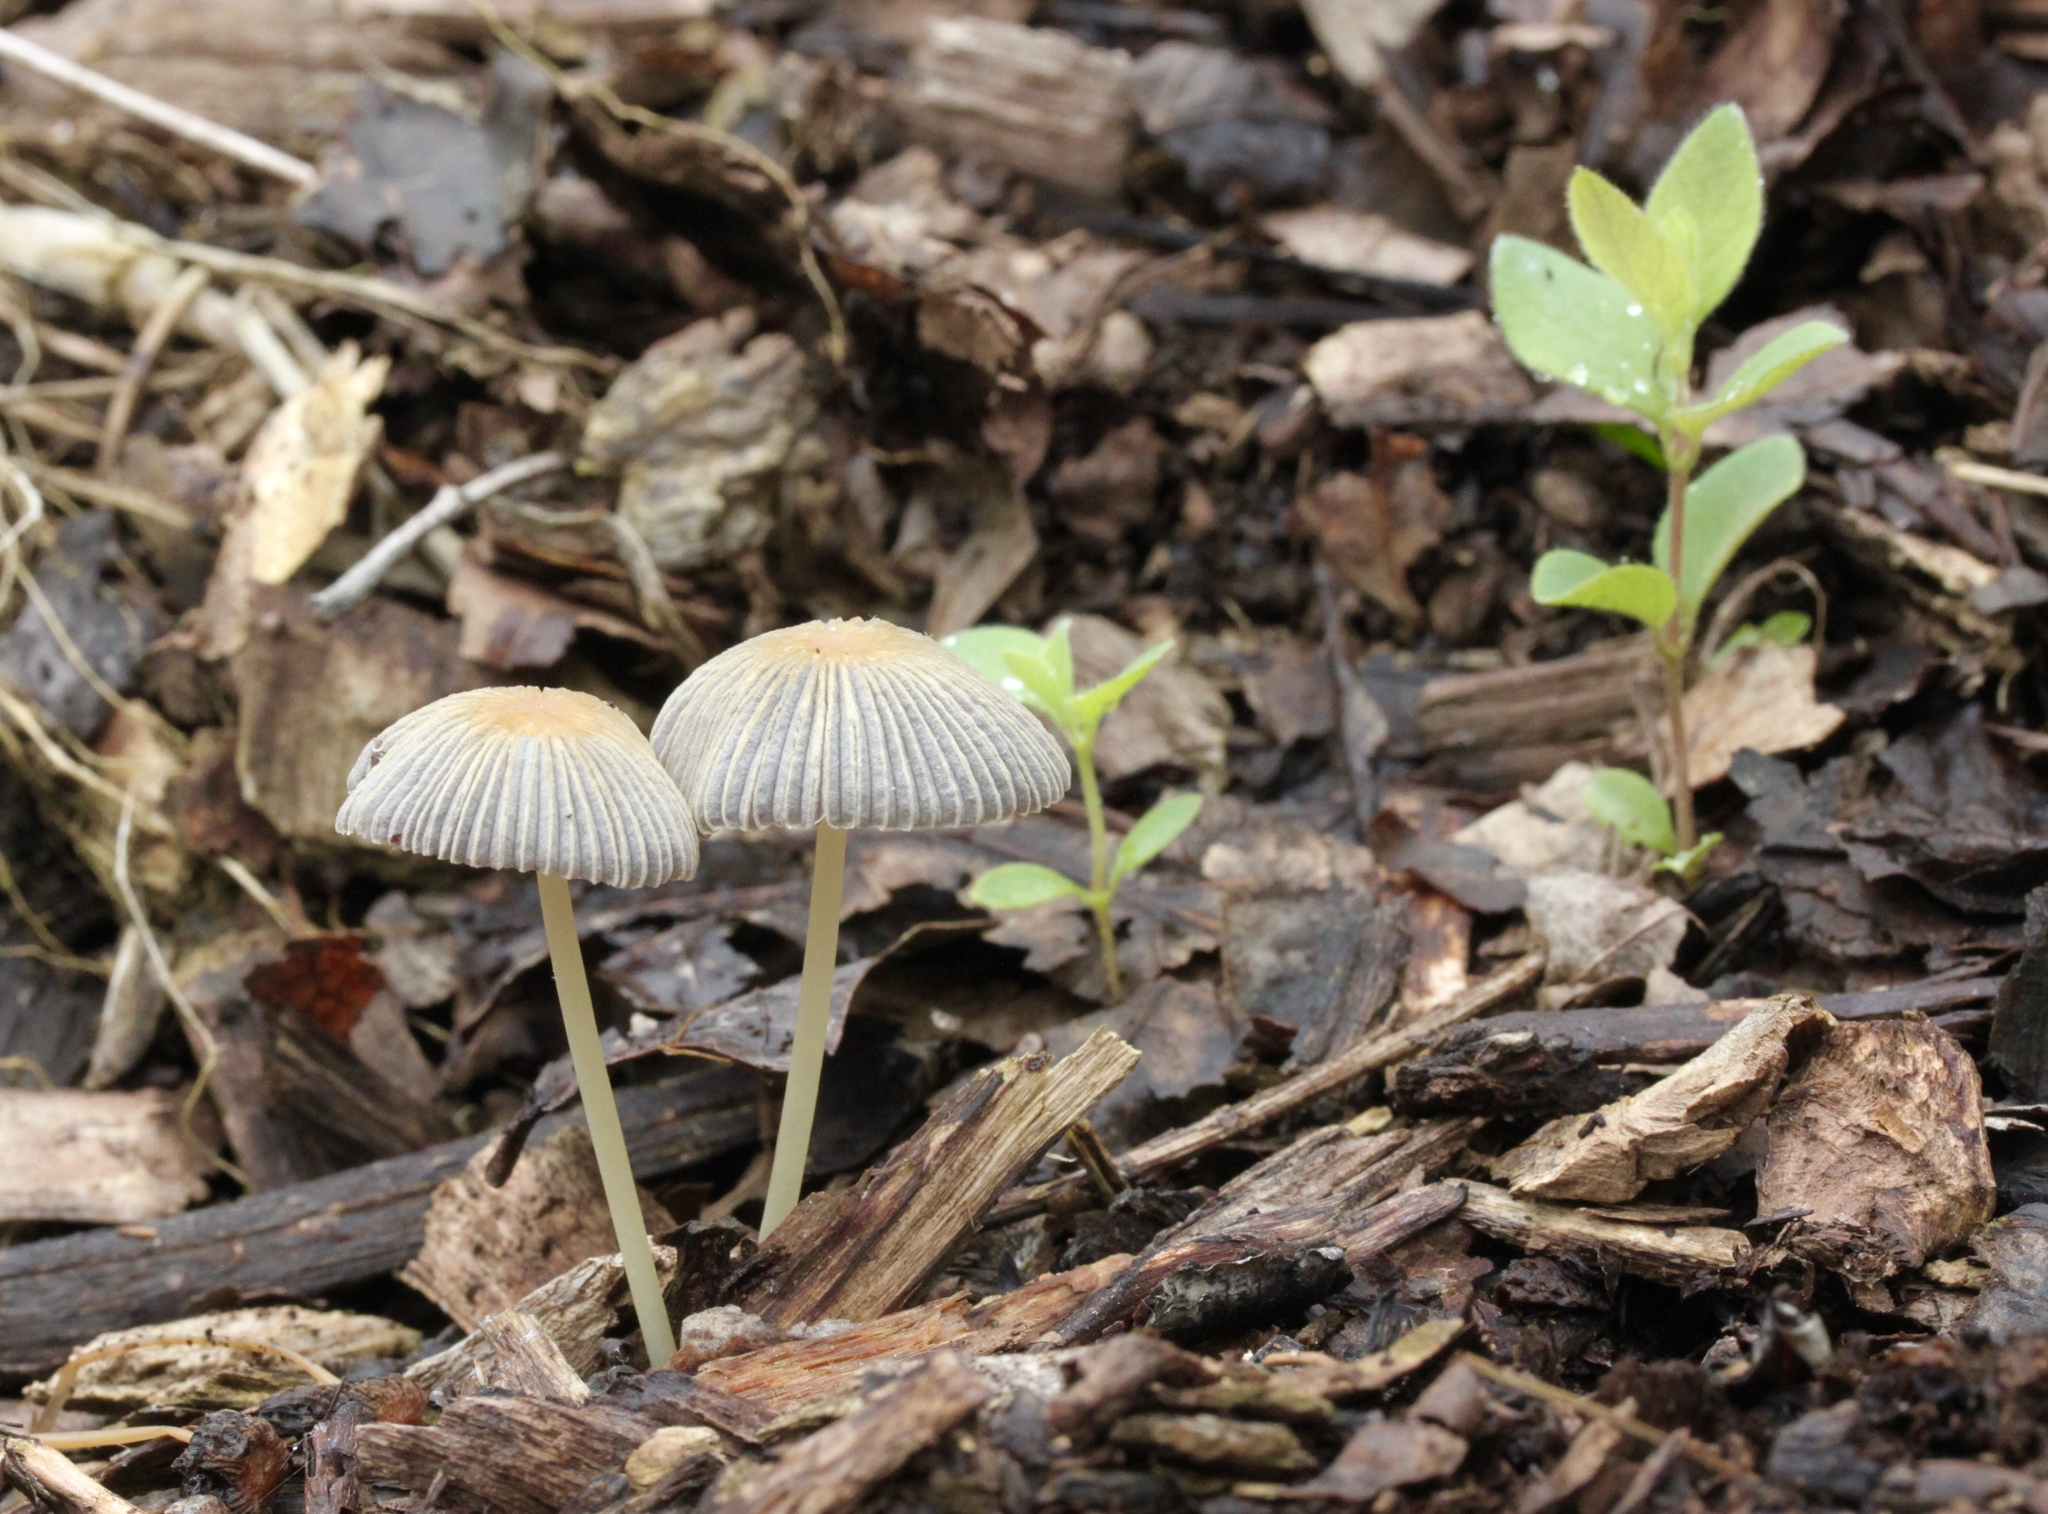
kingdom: Fungi
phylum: Basidiomycota
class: Agaricomycetes
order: Agaricales
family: Psathyrellaceae
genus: Parasola
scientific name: Parasola auricoma
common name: Goldenhaired inkcap
